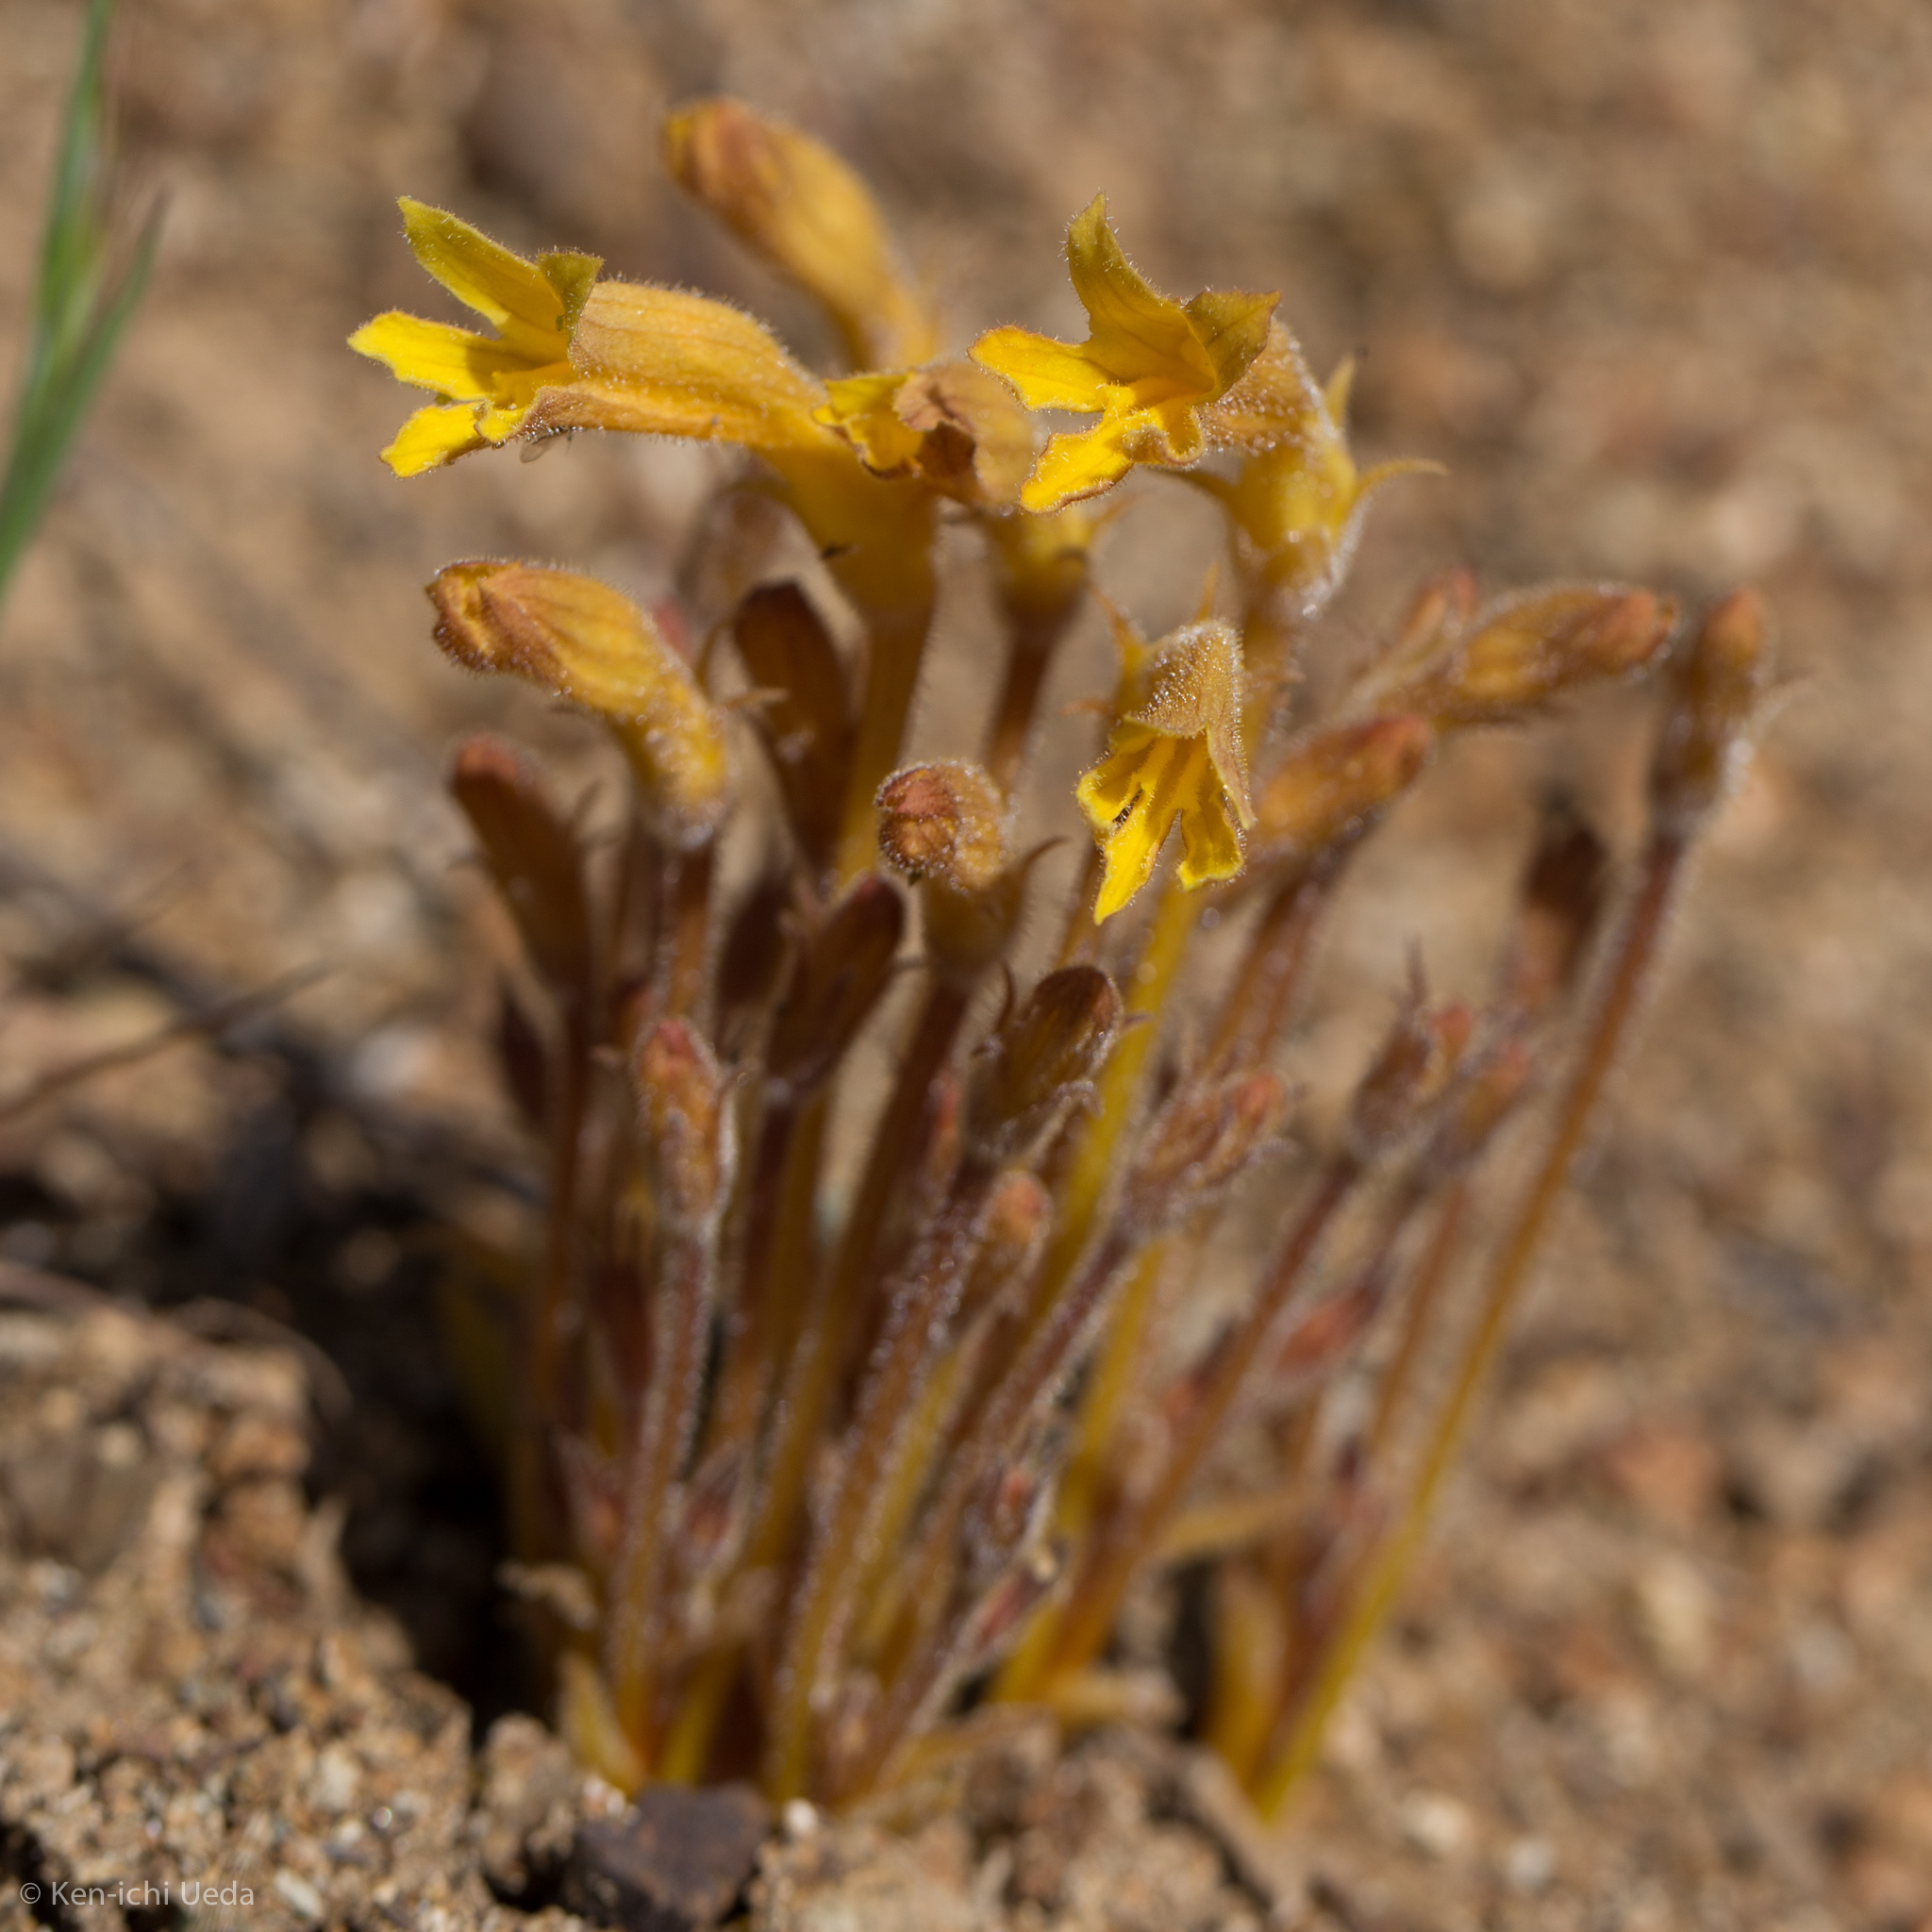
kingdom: Plantae
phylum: Tracheophyta
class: Magnoliopsida
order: Lamiales
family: Orobanchaceae
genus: Aphyllon
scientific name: Aphyllon franciscanum
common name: San francisco broomrape
